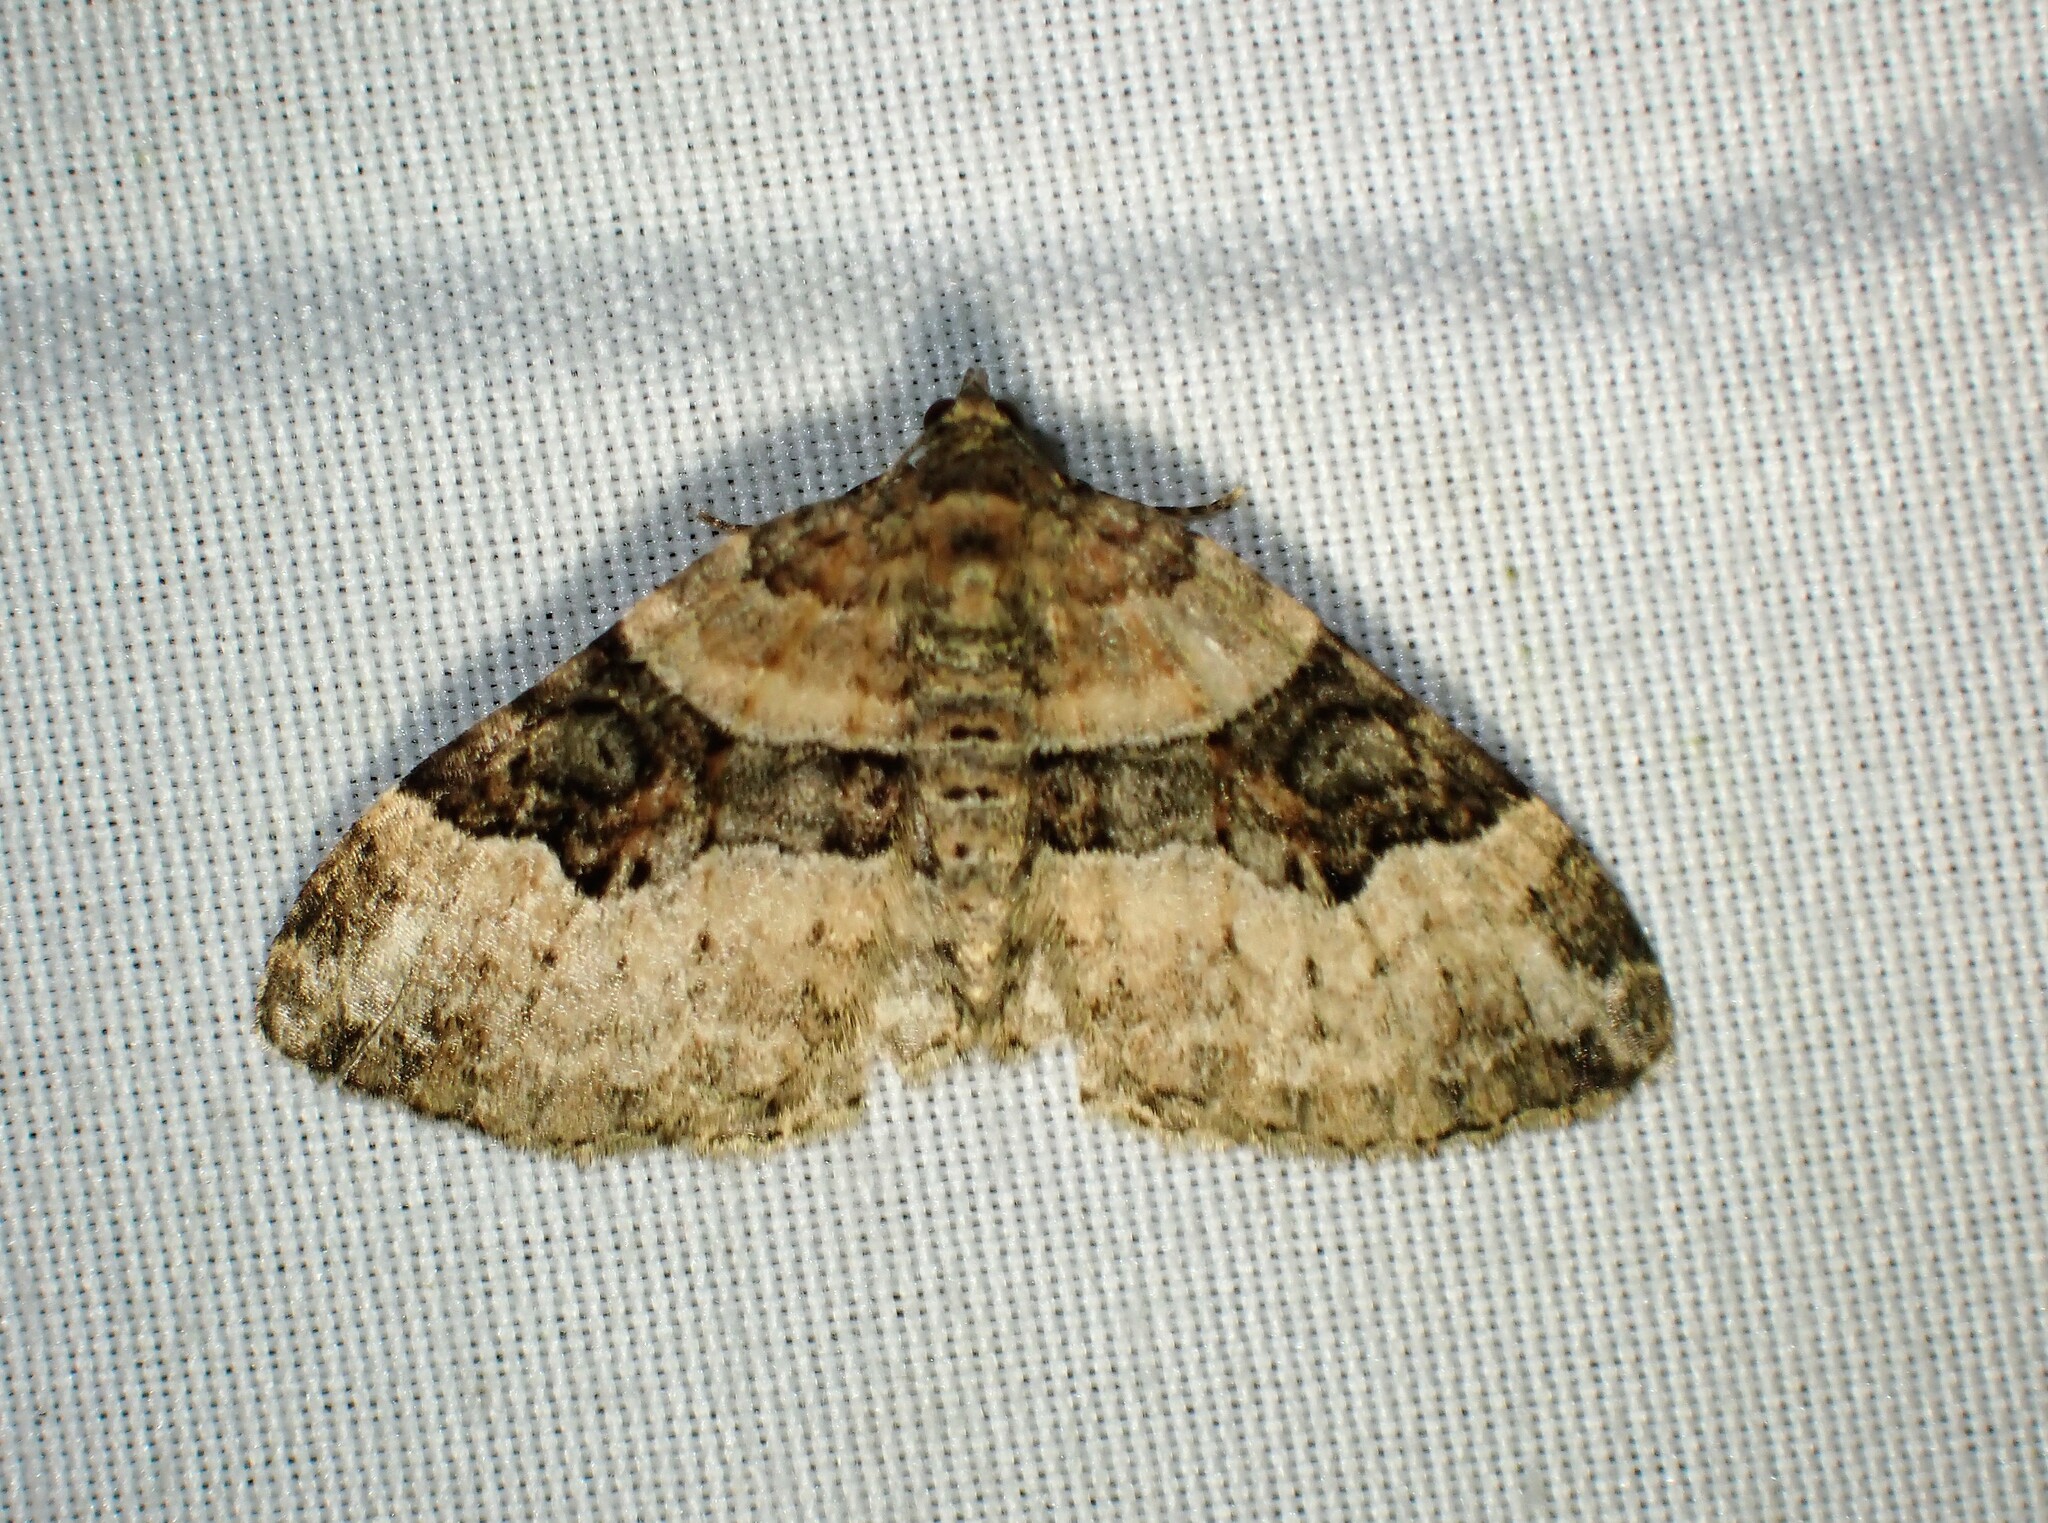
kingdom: Animalia
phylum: Arthropoda
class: Insecta
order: Lepidoptera
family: Geometridae
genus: Xanthorhoe
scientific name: Xanthorhoe lacustrata
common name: Toothed brown carpet
